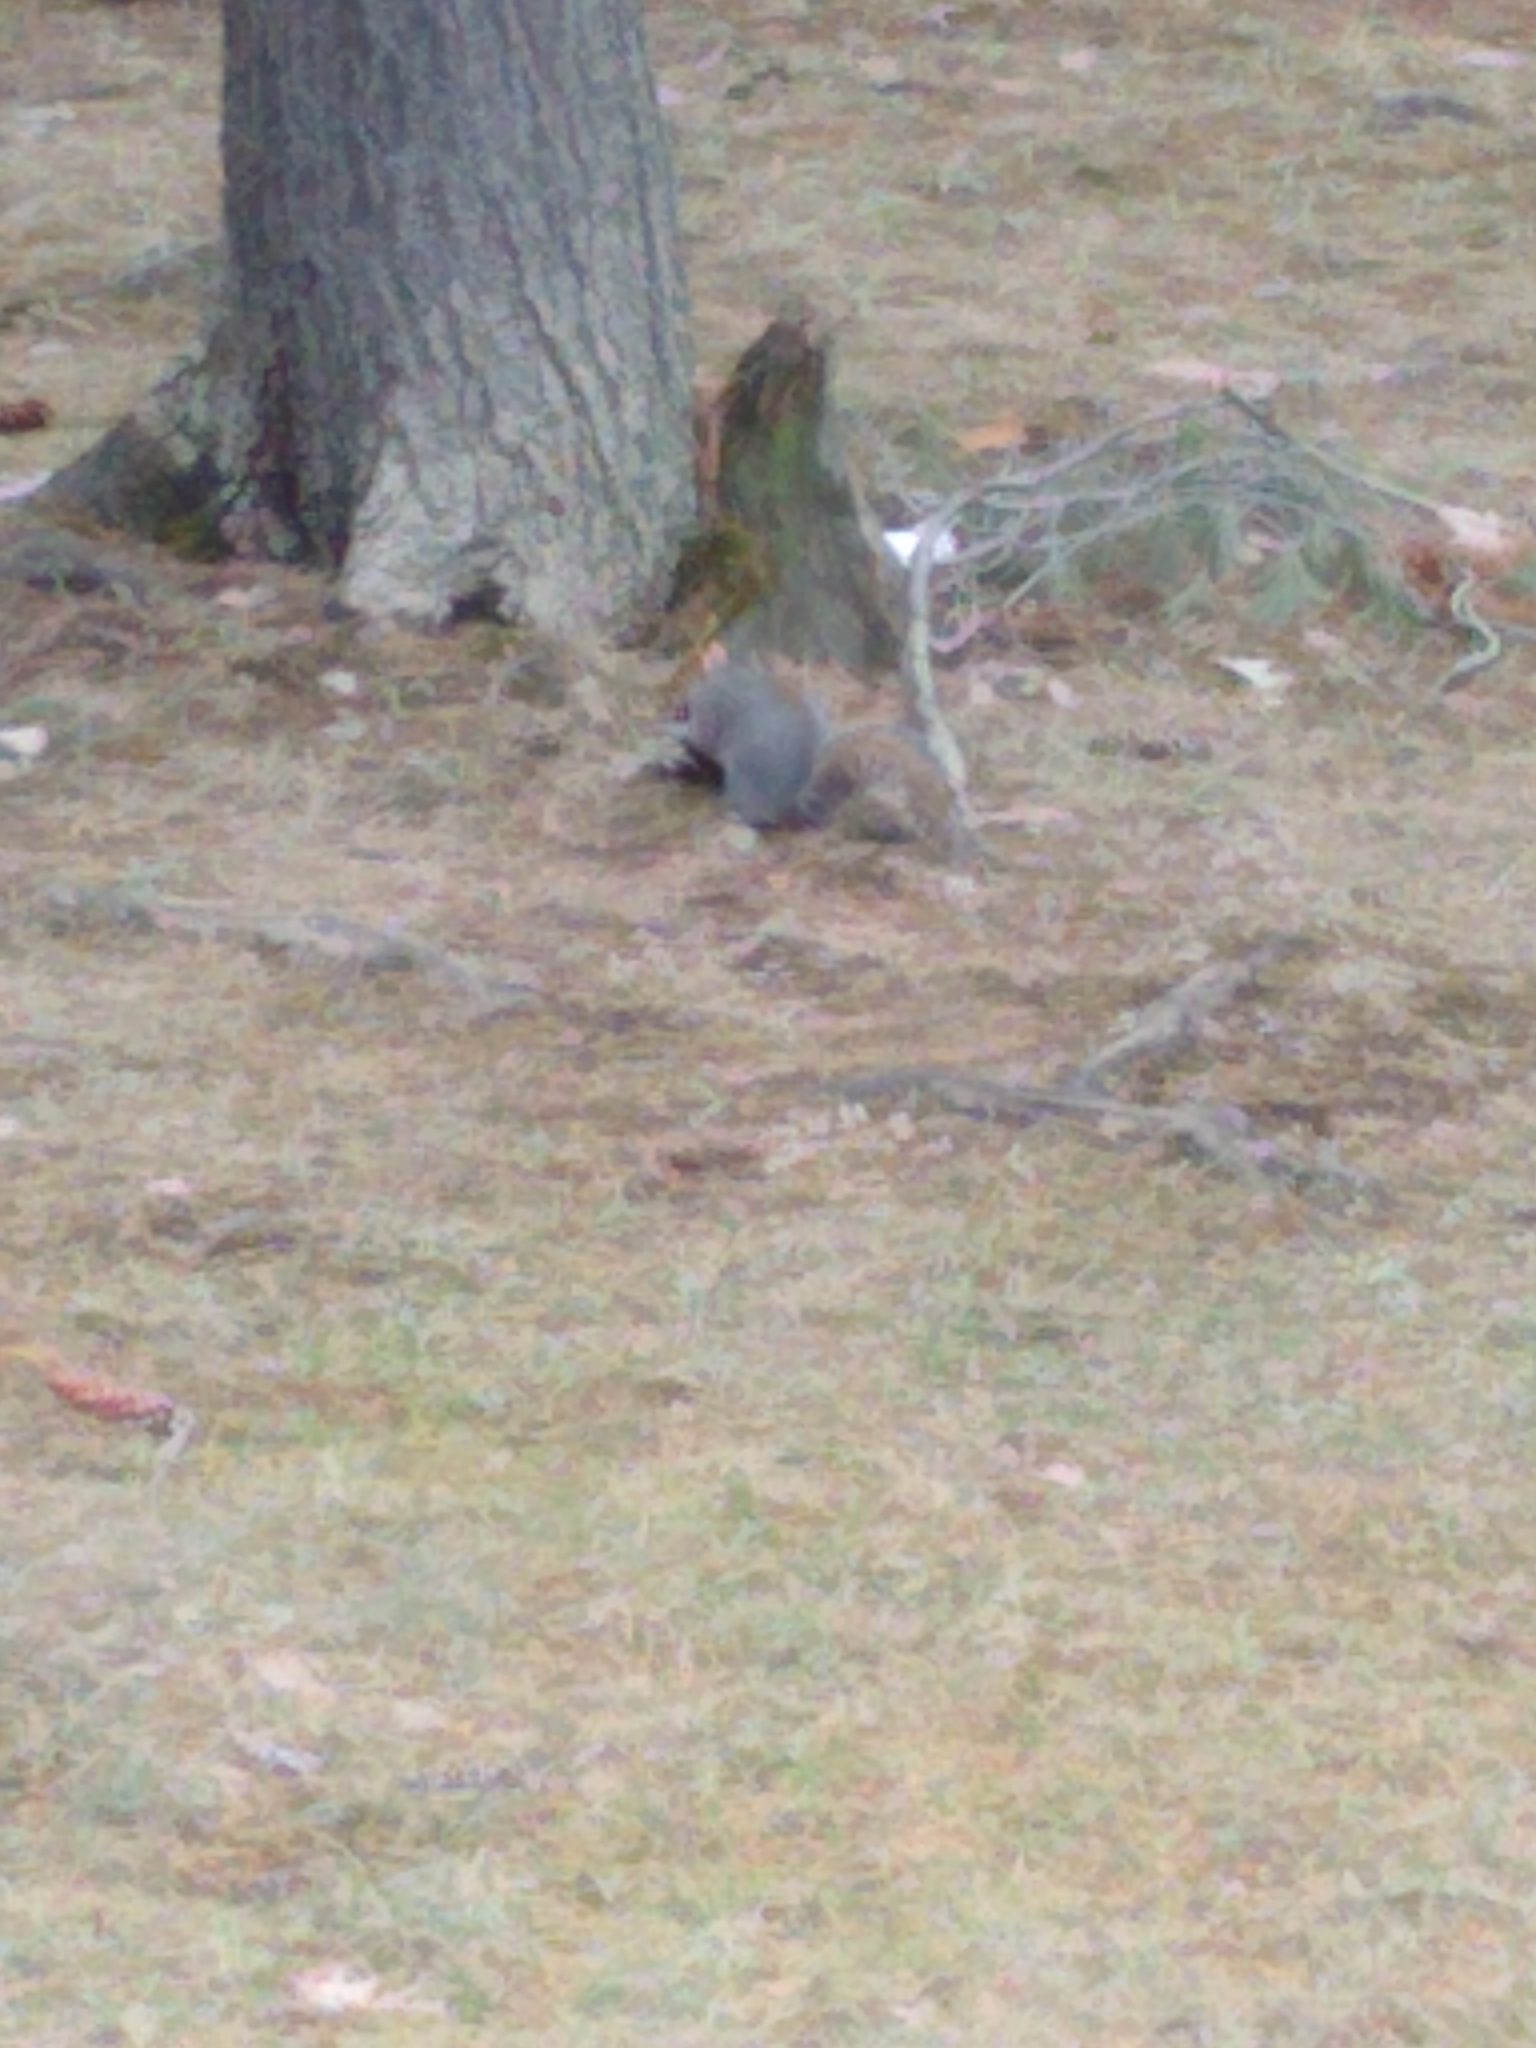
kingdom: Animalia
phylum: Chordata
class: Mammalia
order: Rodentia
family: Sciuridae
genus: Sciurus
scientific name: Sciurus carolinensis
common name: Eastern gray squirrel
